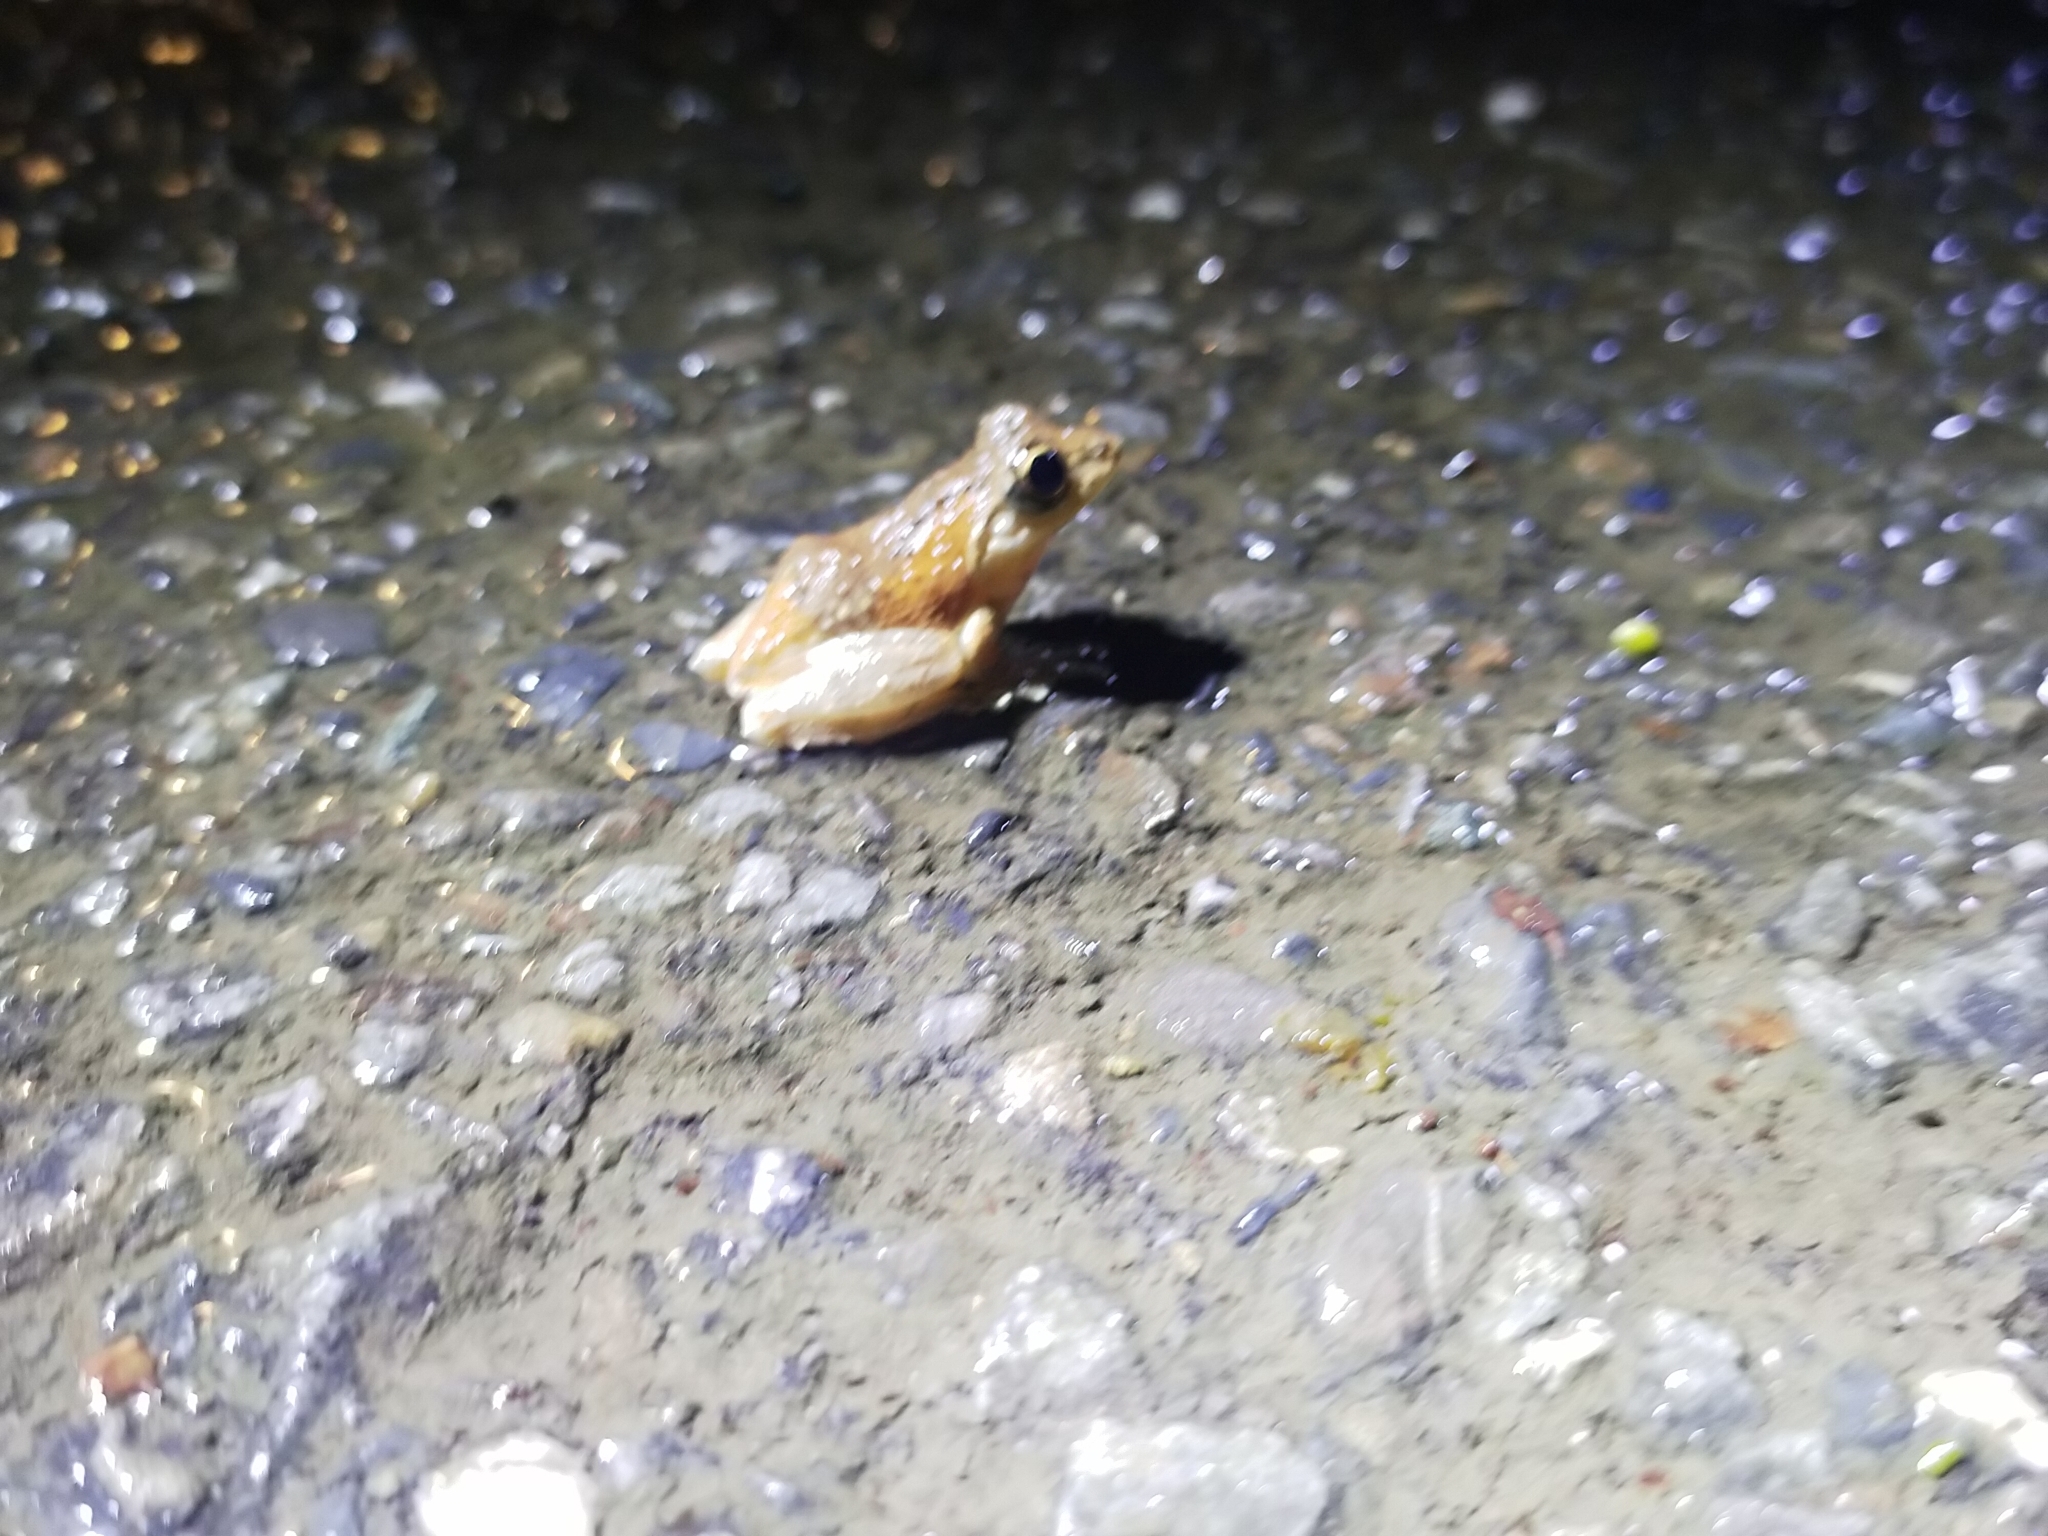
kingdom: Animalia
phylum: Chordata
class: Amphibia
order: Anura
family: Rhacophoridae
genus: Kurixalus
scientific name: Kurixalus idiootocus
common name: Temple treefrog
